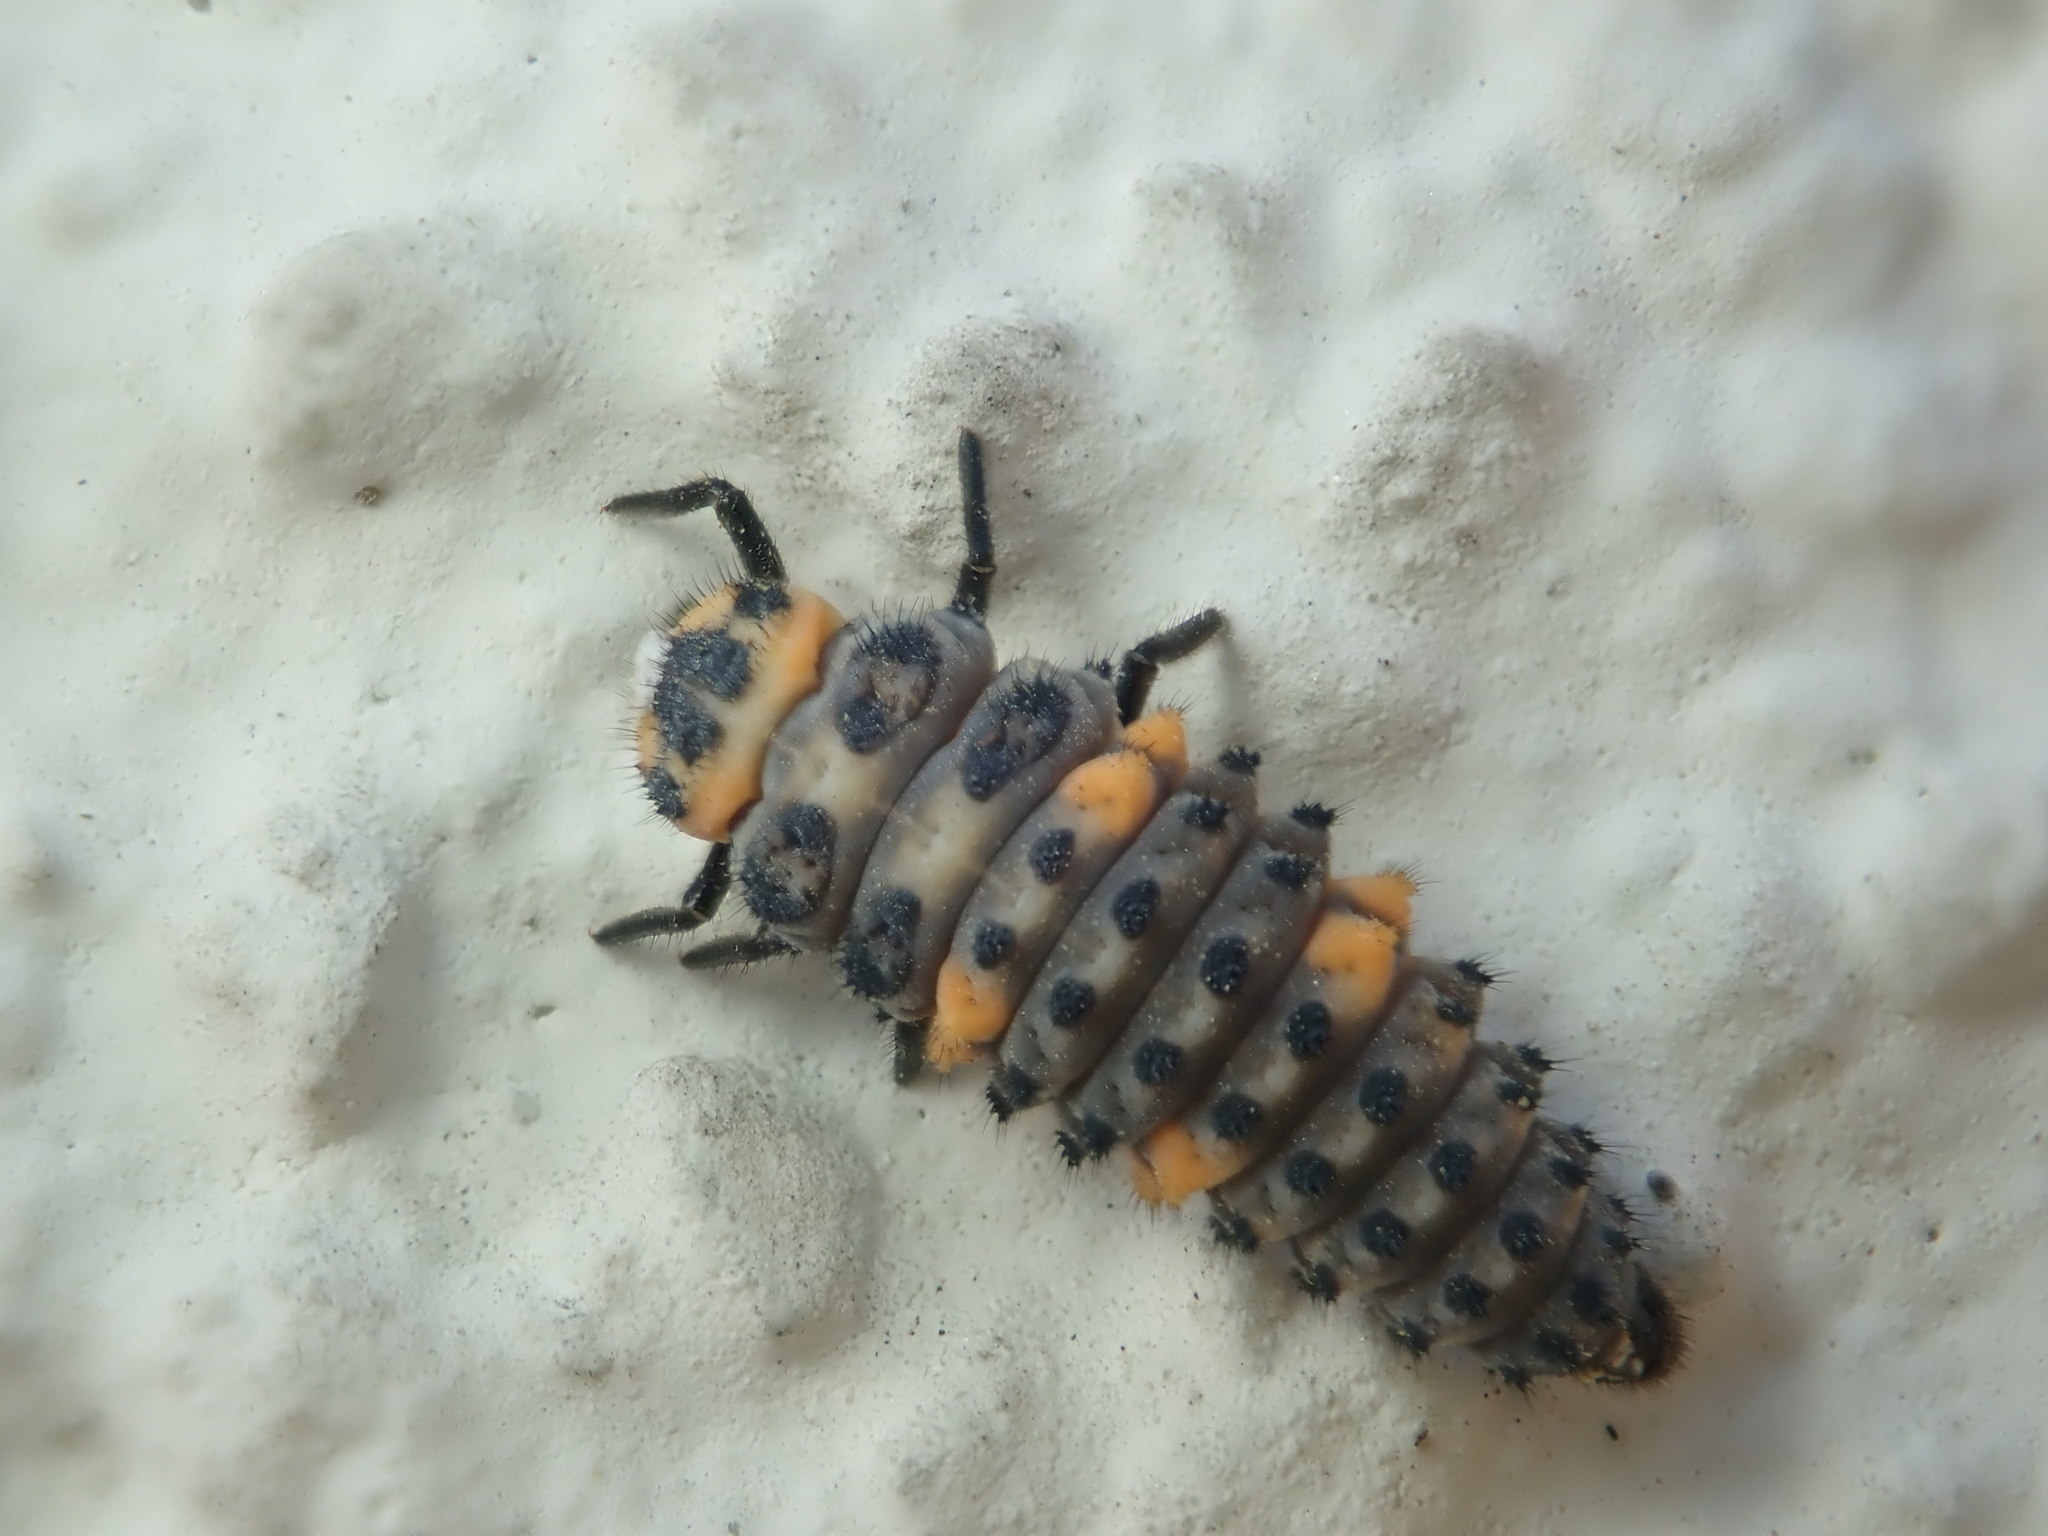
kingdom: Animalia
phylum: Arthropoda
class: Insecta
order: Coleoptera
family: Coccinellidae
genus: Coccinella
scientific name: Coccinella septempunctata
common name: Sevenspotted lady beetle
